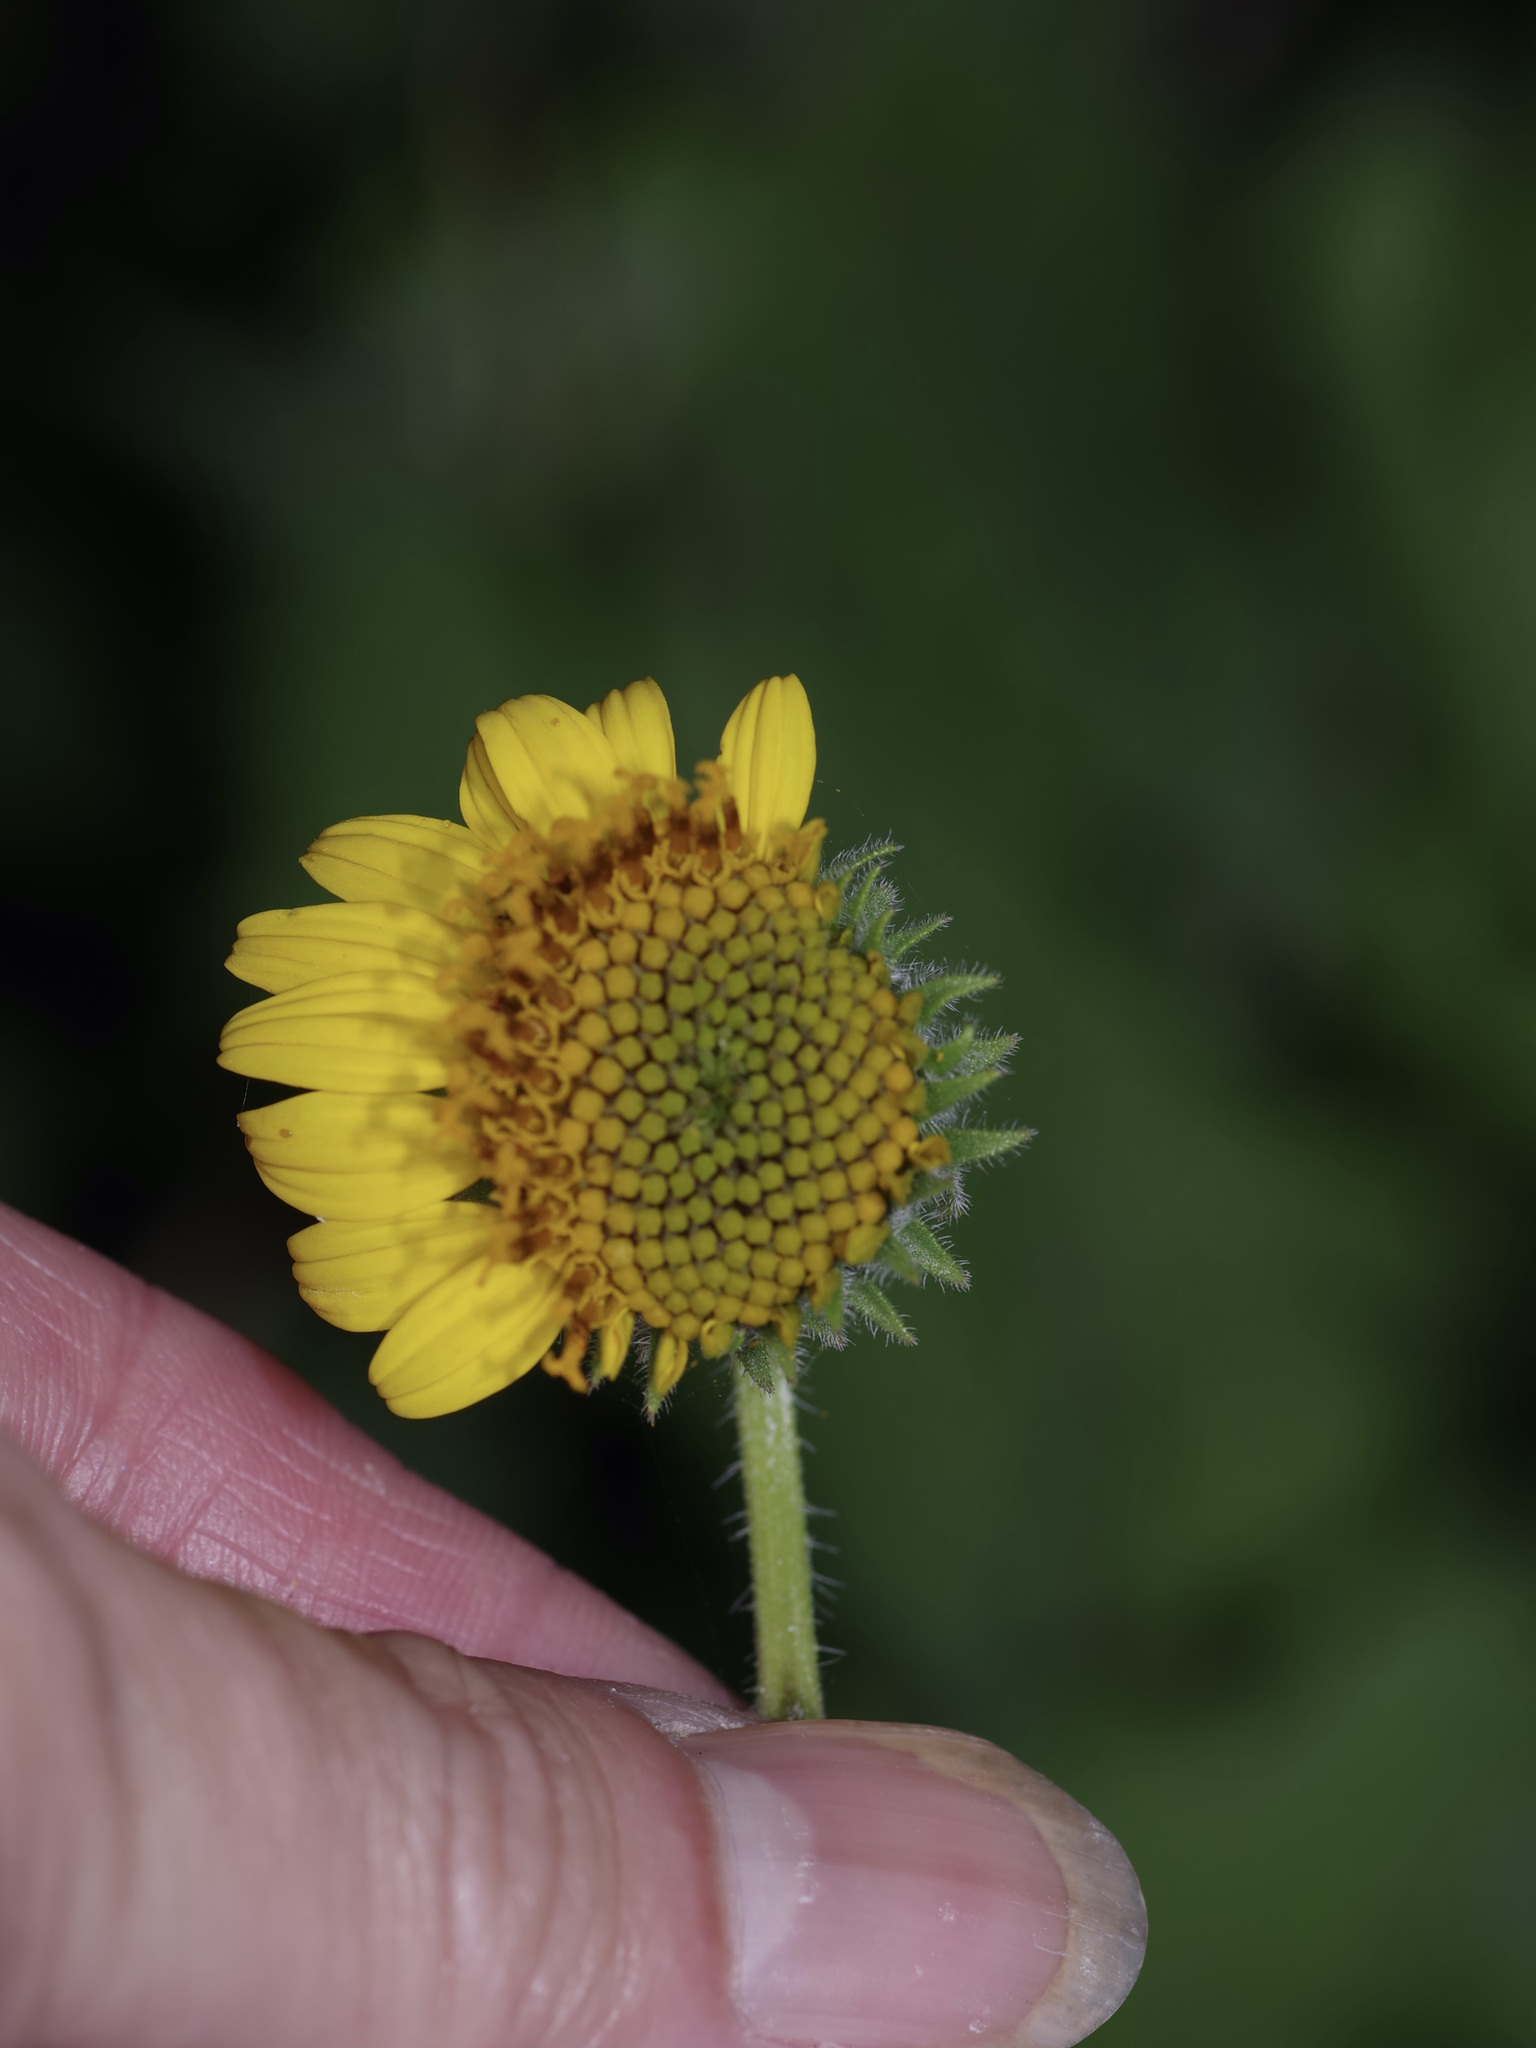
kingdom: Plantae
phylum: Tracheophyta
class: Magnoliopsida
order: Asterales
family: Asteraceae
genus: Simsia
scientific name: Simsia calva
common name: Awnless bush-sunflower
